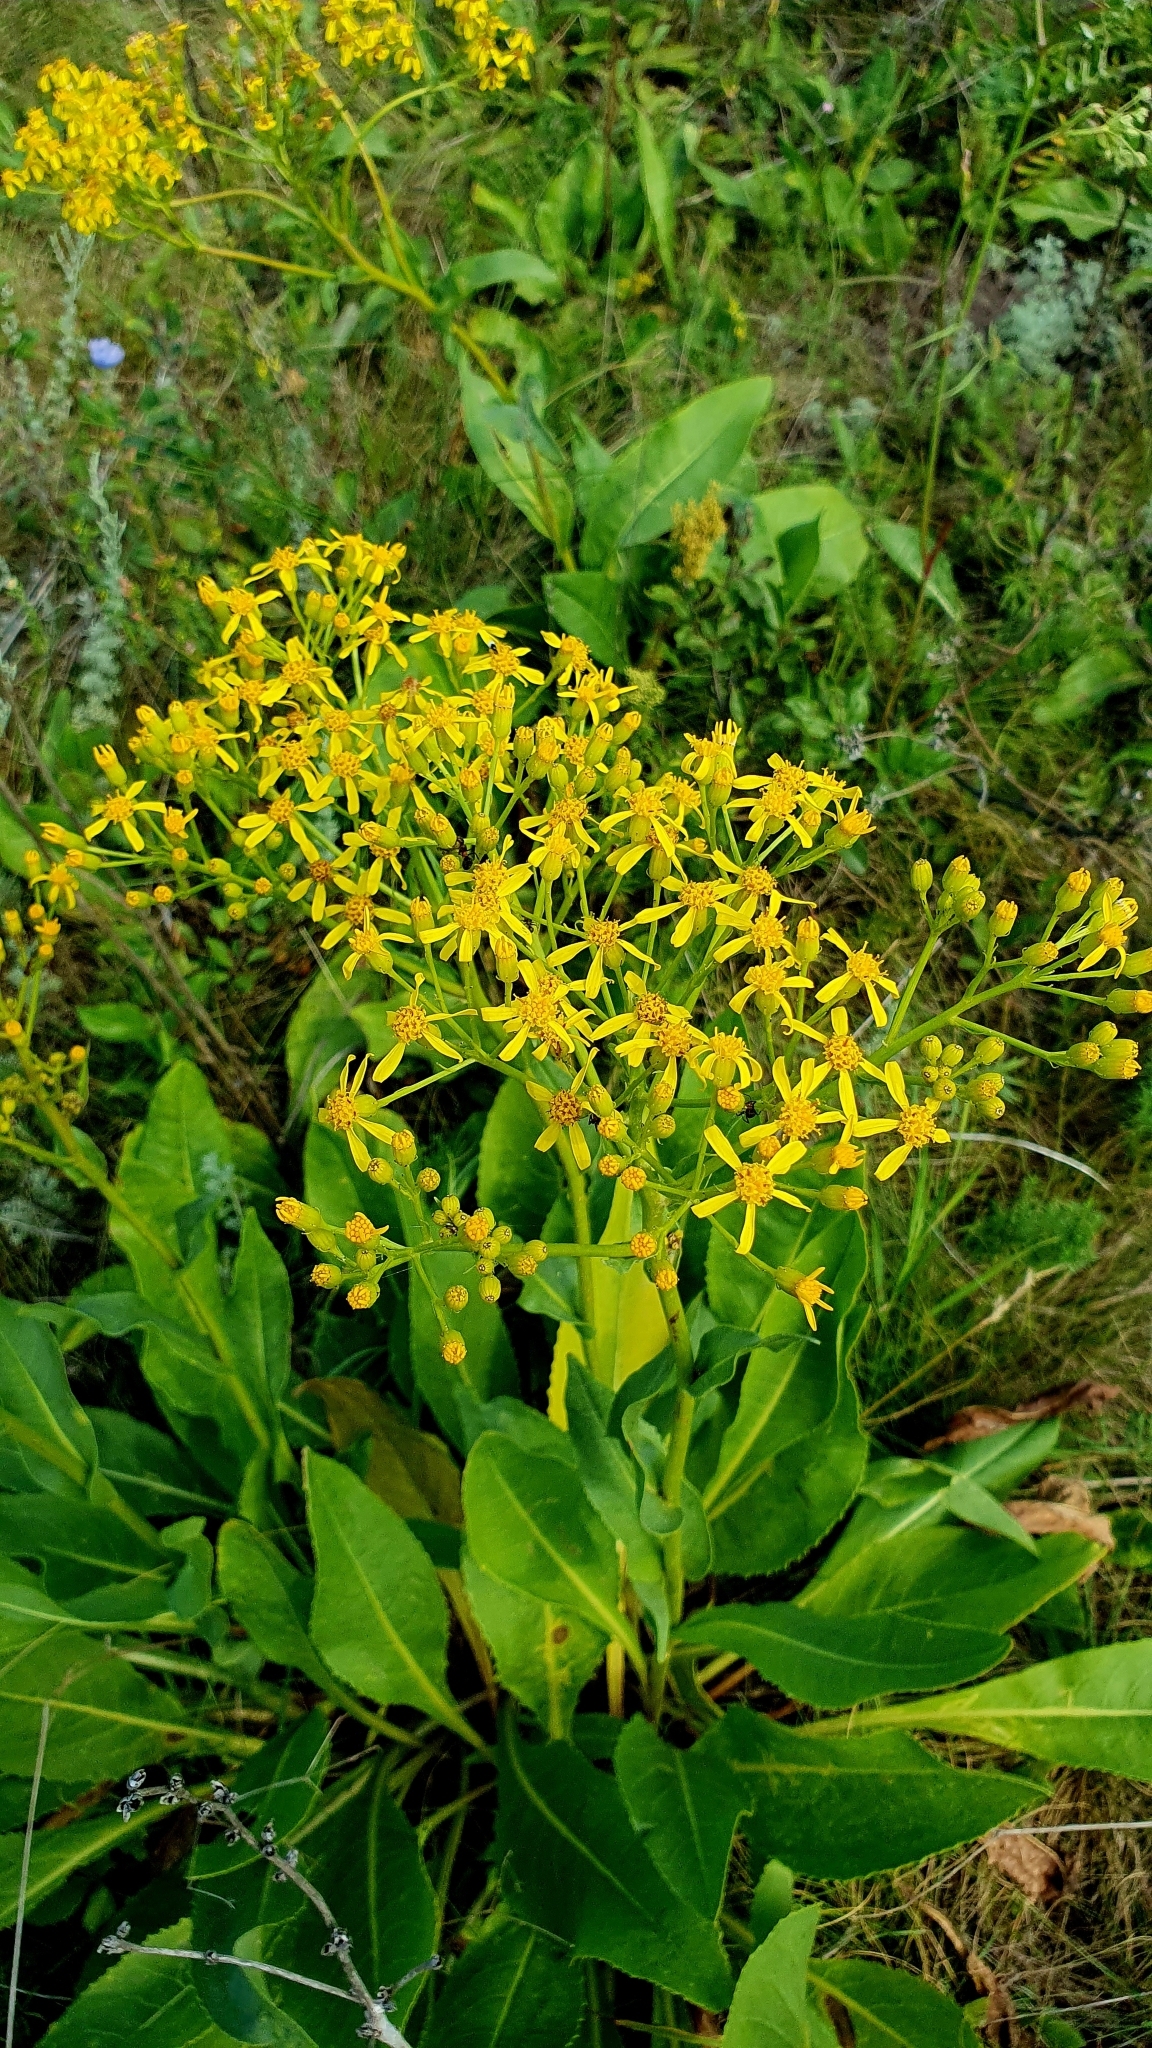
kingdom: Plantae
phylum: Tracheophyta
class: Magnoliopsida
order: Asterales
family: Asteraceae
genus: Senecio
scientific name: Senecio doria
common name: Golden ragwort
